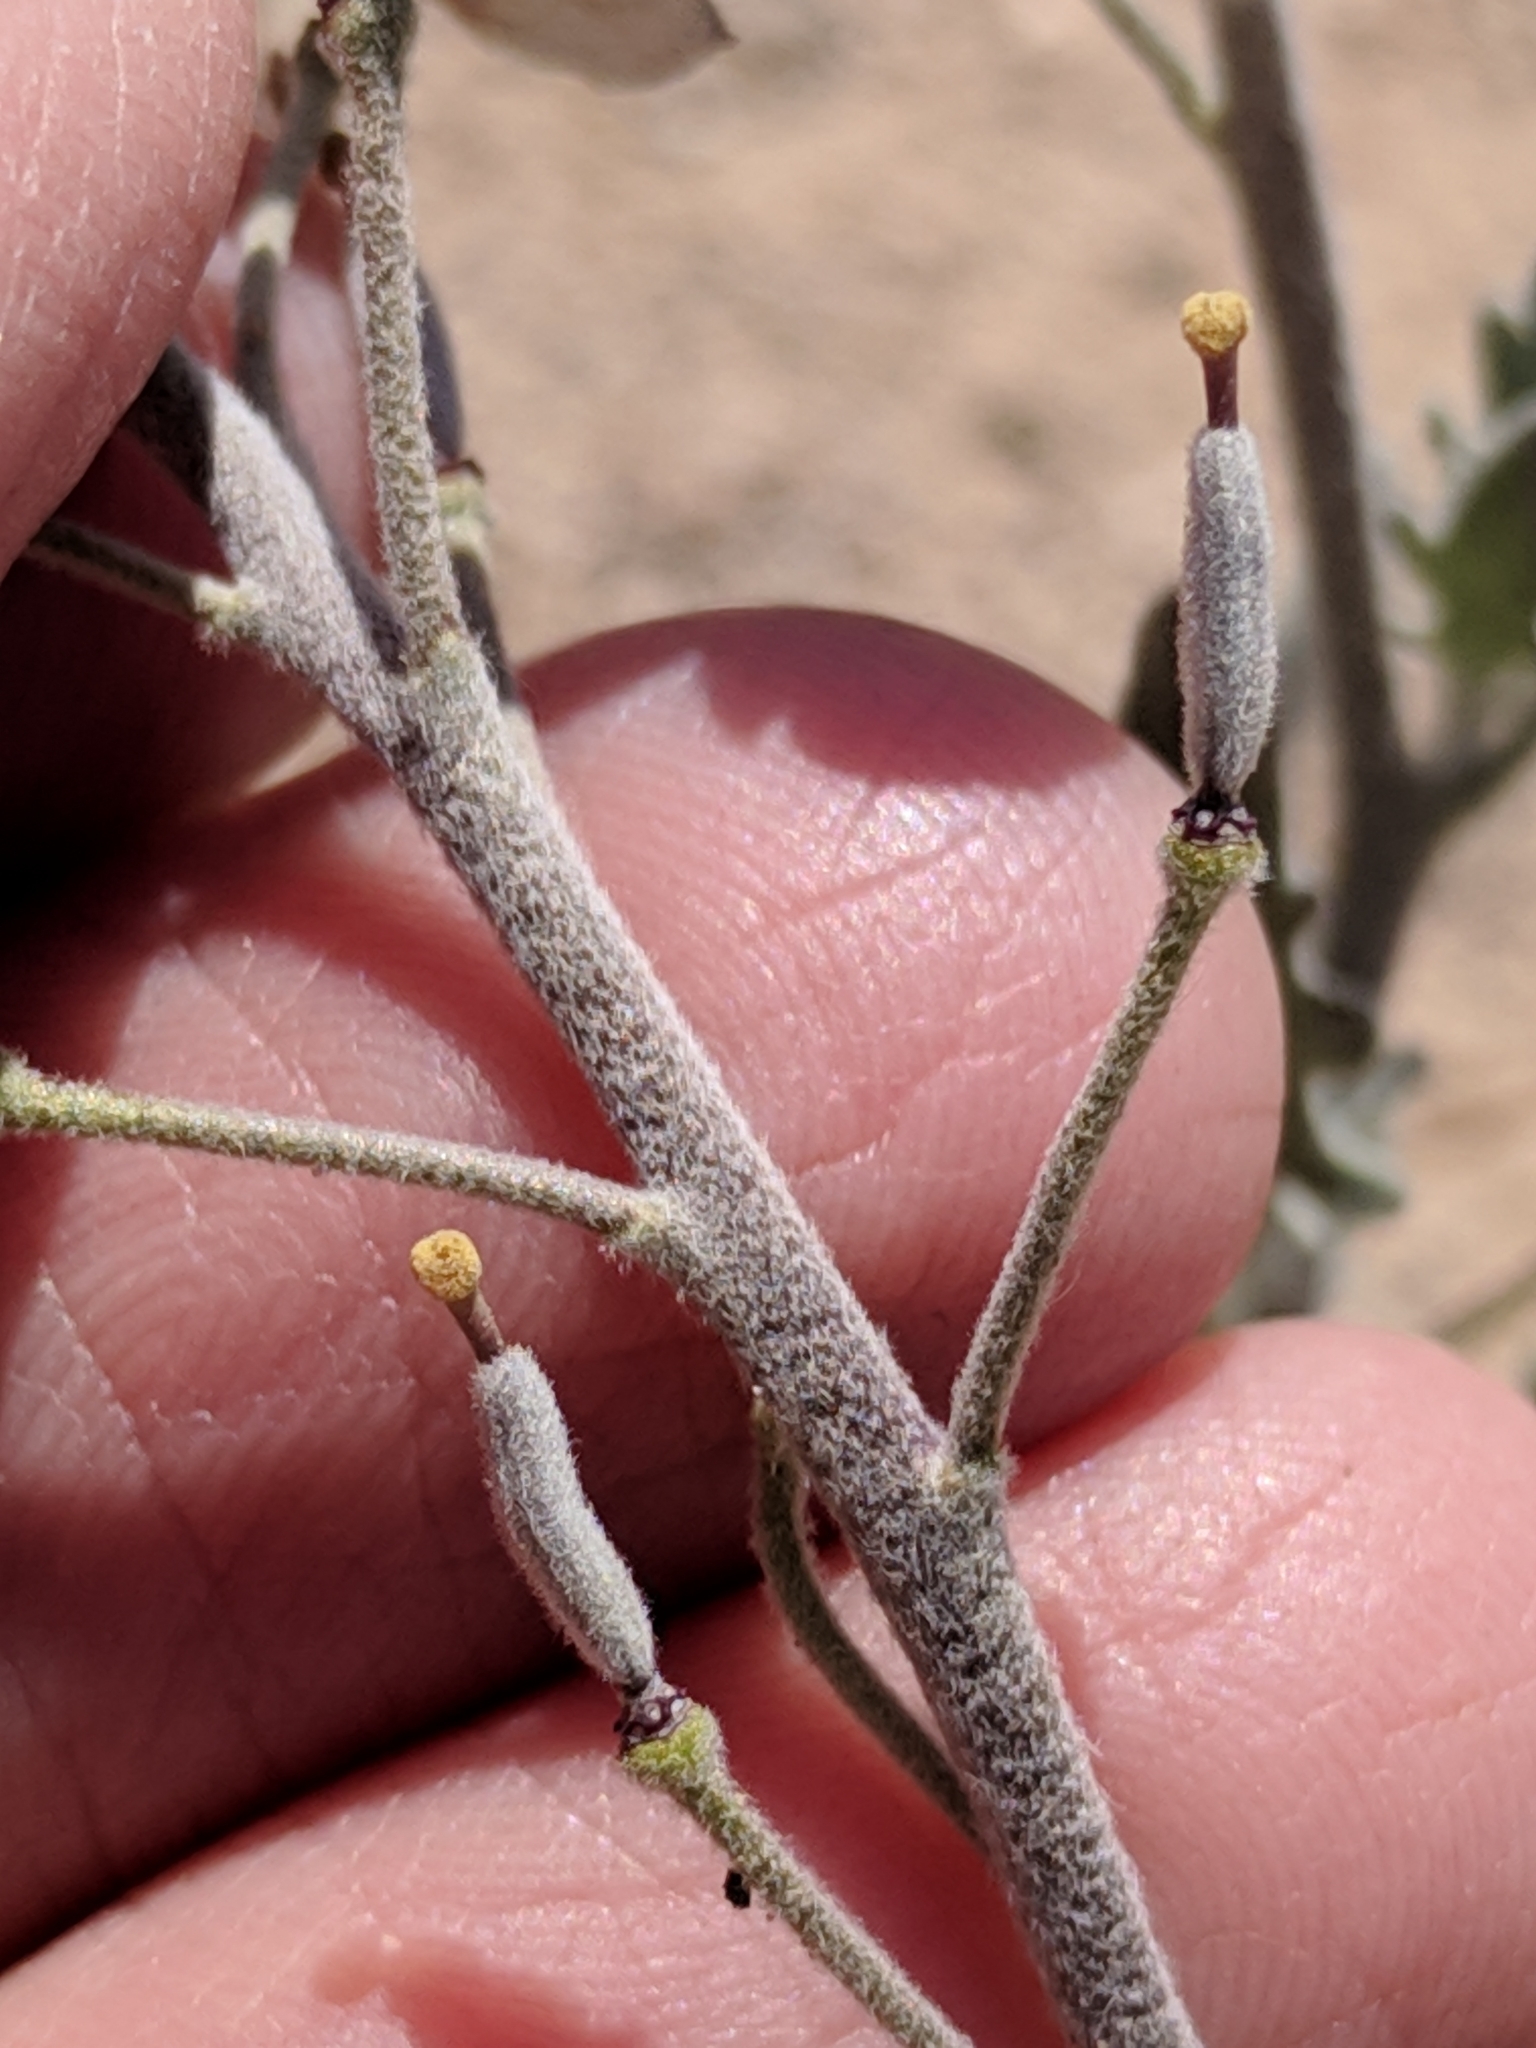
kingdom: Plantae
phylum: Tracheophyta
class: Magnoliopsida
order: Brassicales
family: Brassicaceae
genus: Nerisyrenia
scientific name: Nerisyrenia camporum
